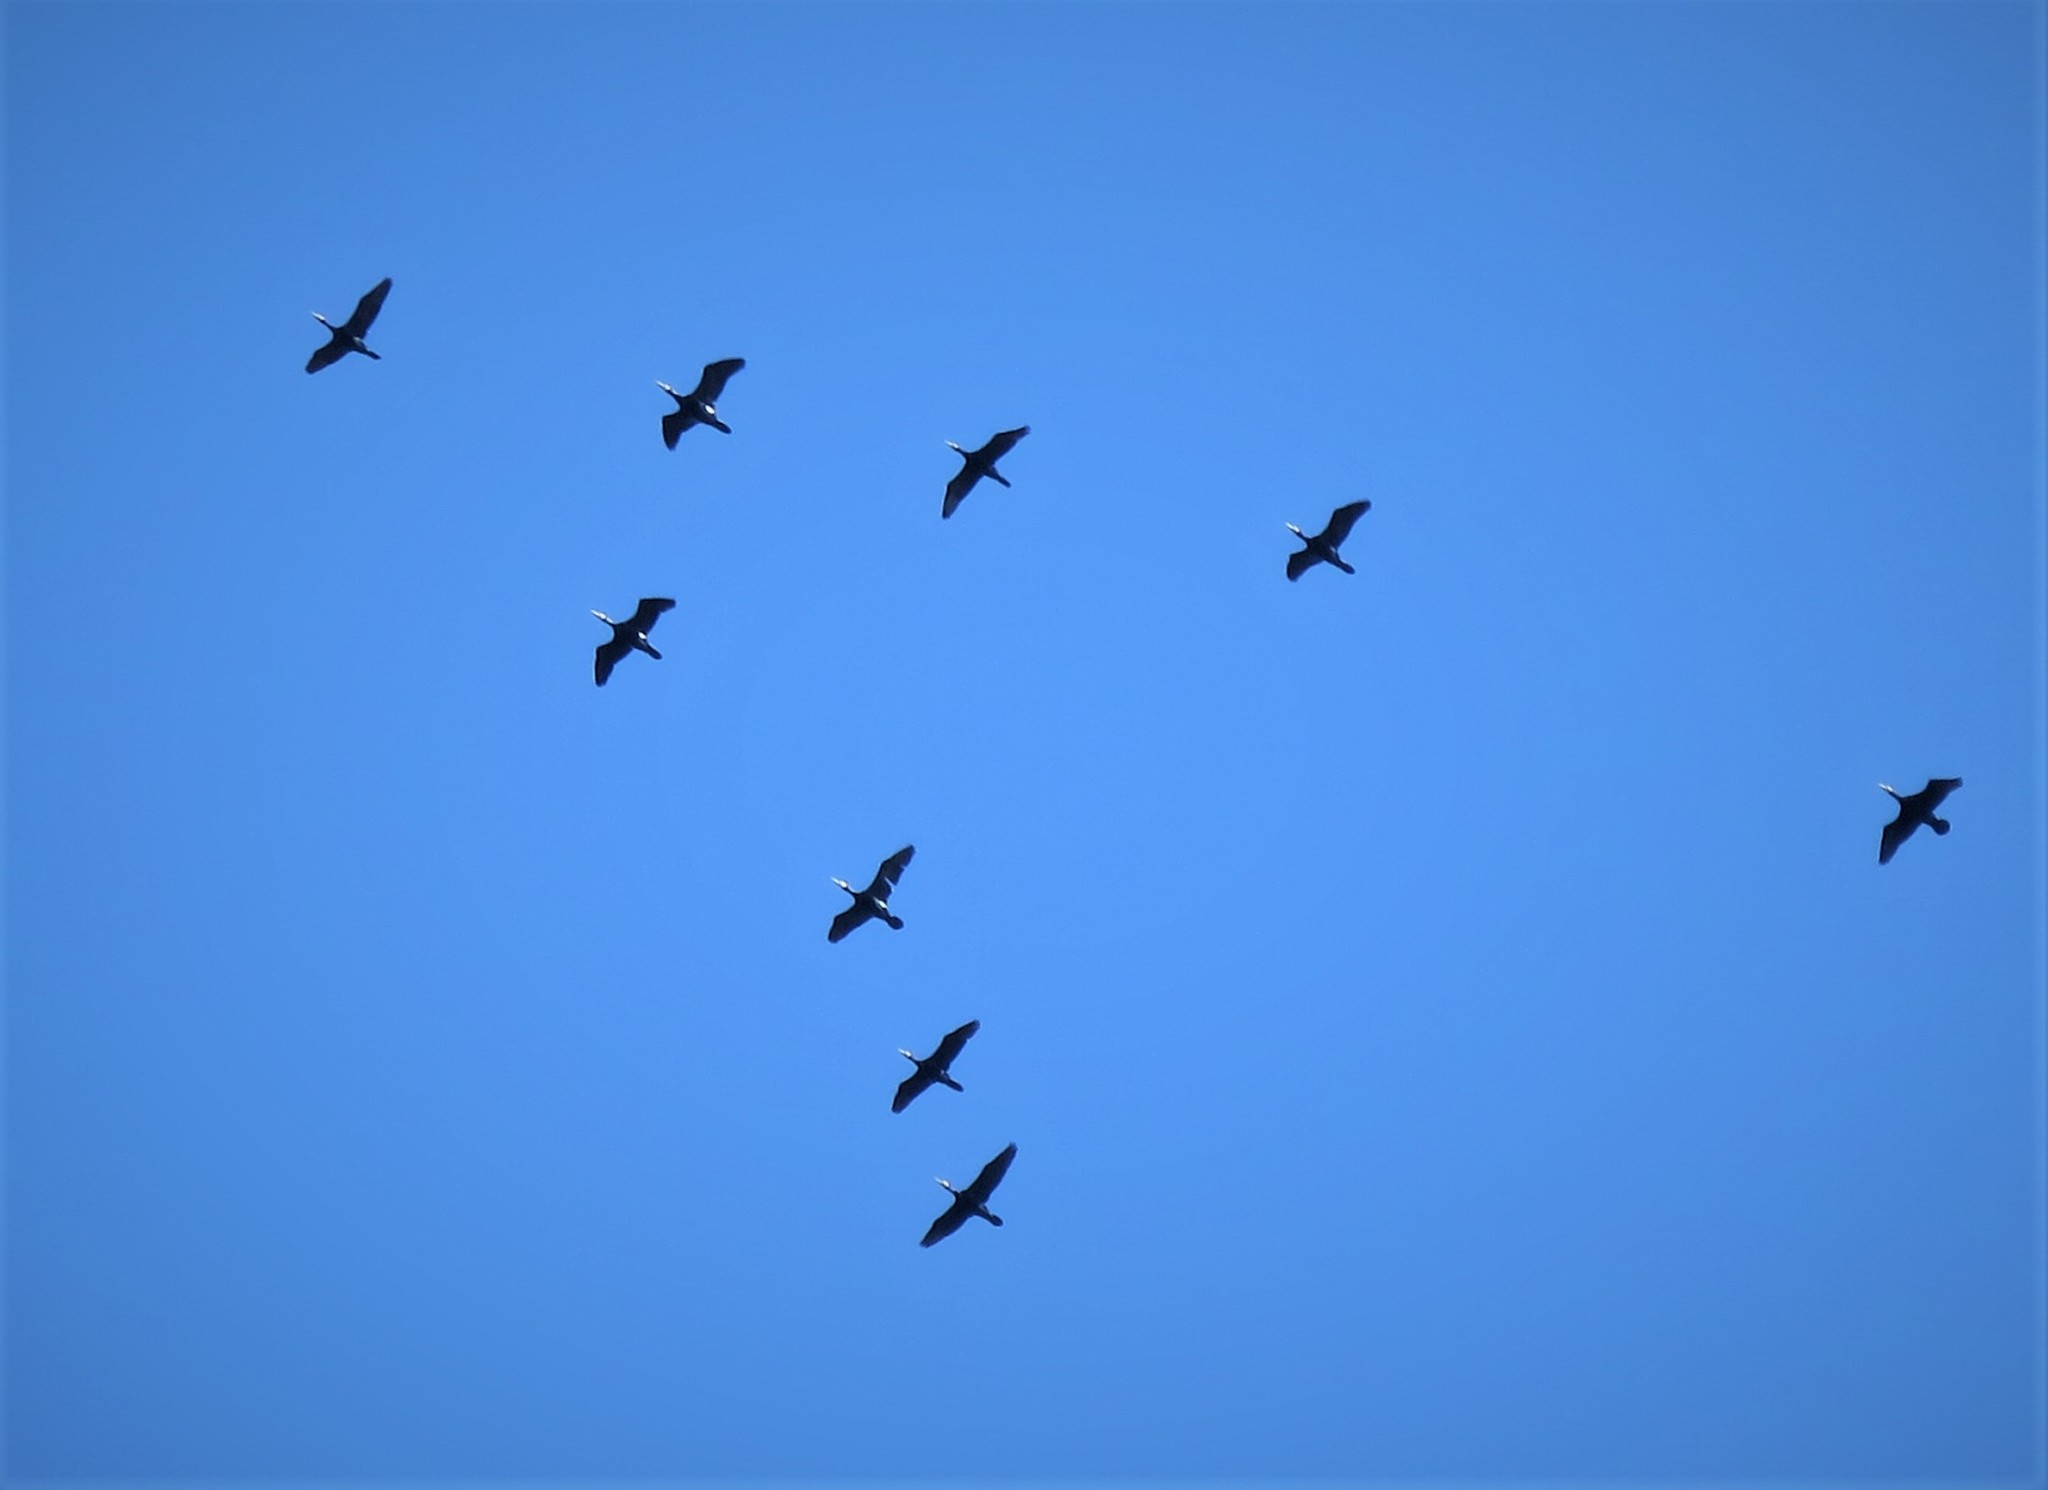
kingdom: Animalia
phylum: Chordata
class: Aves
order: Suliformes
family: Phalacrocoracidae
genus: Phalacrocorax
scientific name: Phalacrocorax carbo
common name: Great cormorant
